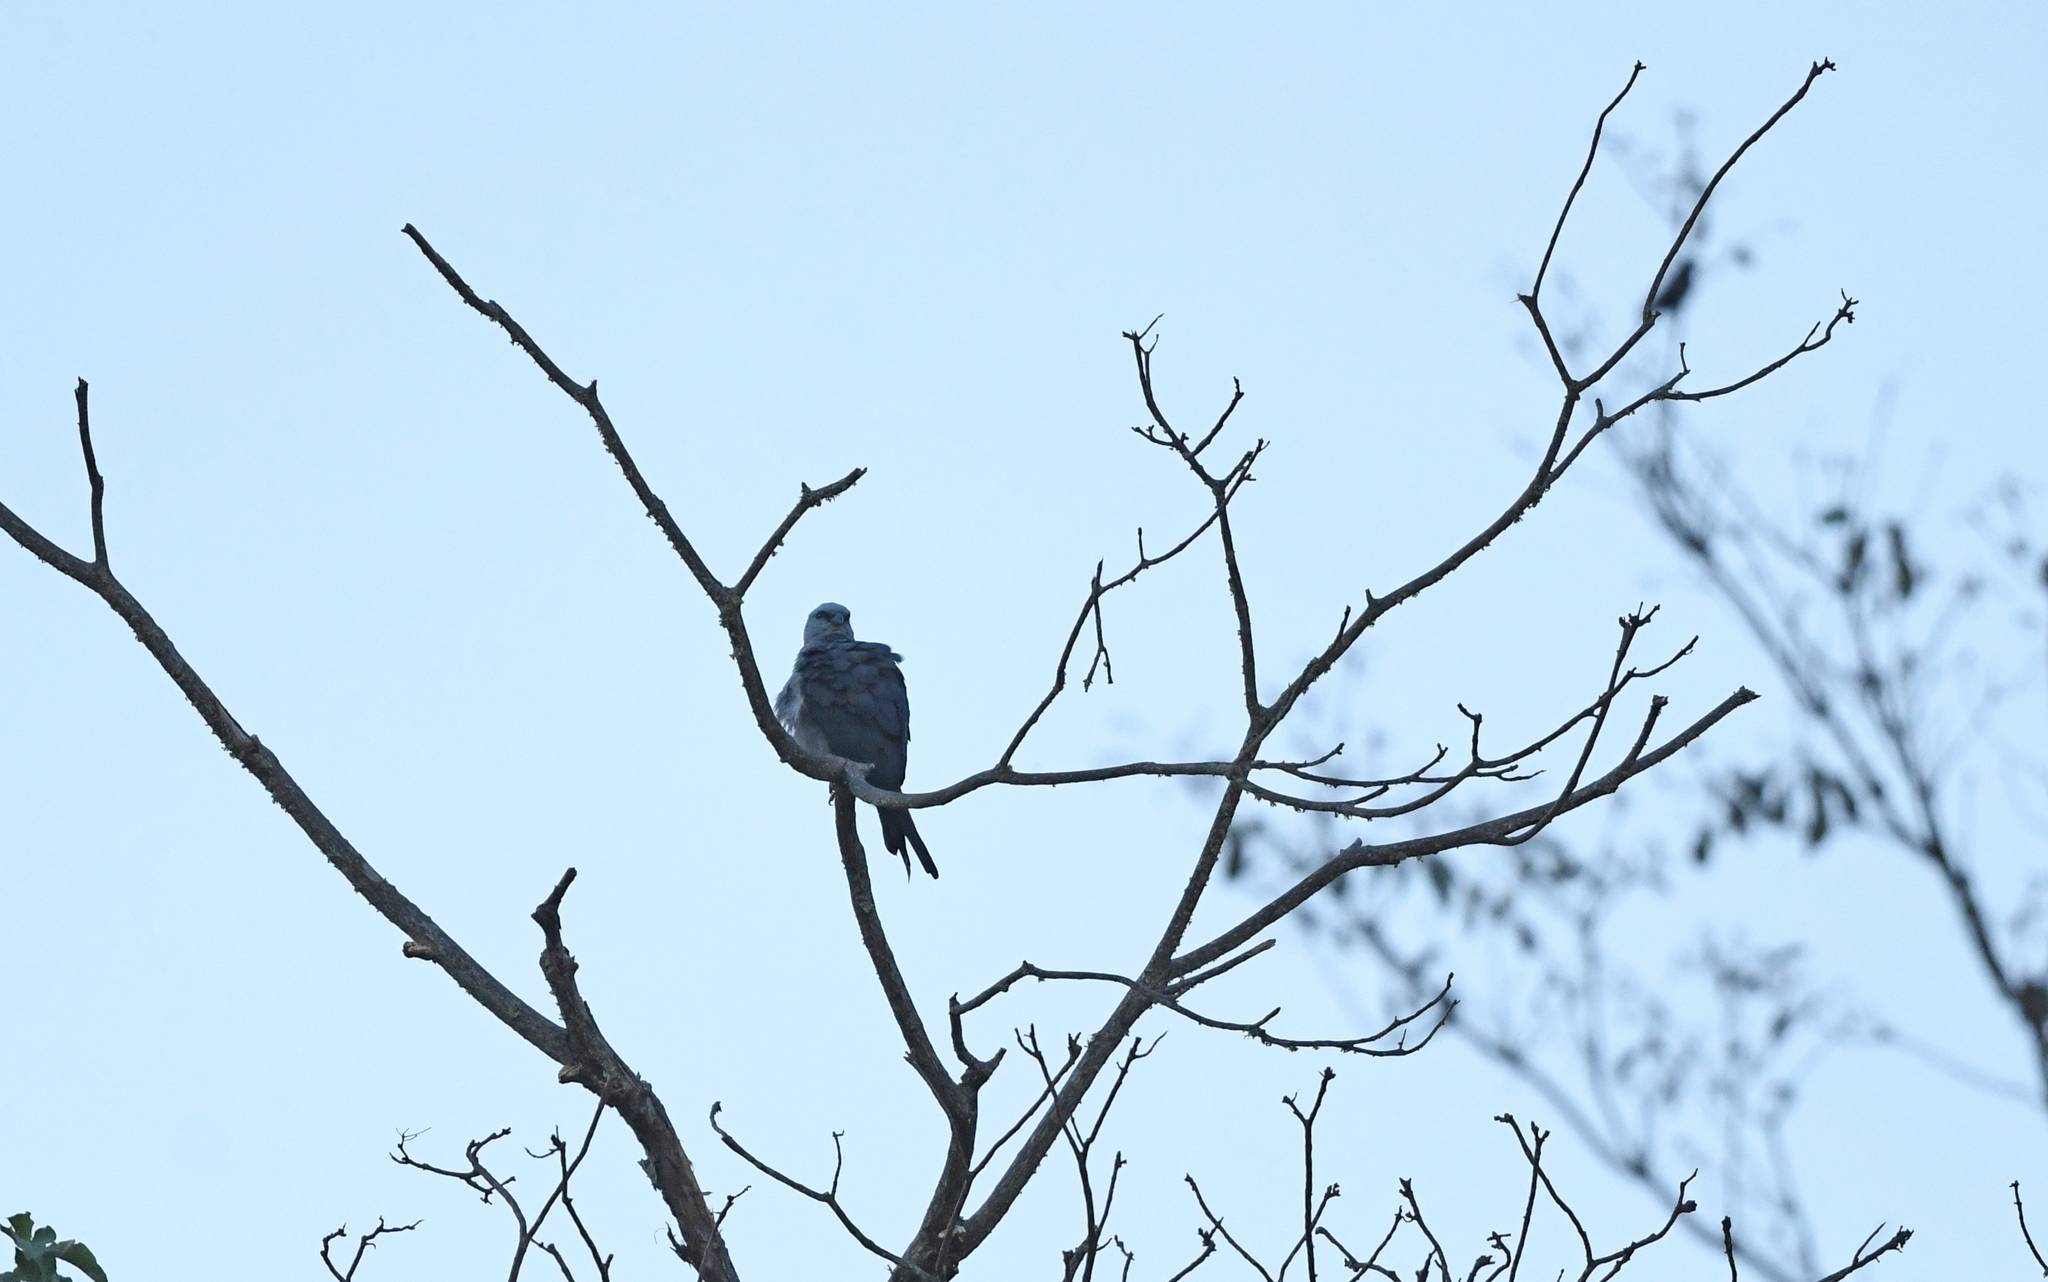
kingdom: Animalia
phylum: Chordata
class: Aves
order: Accipitriformes
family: Accipitridae
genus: Ictinia
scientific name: Ictinia plumbea
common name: Plumbeous kite
